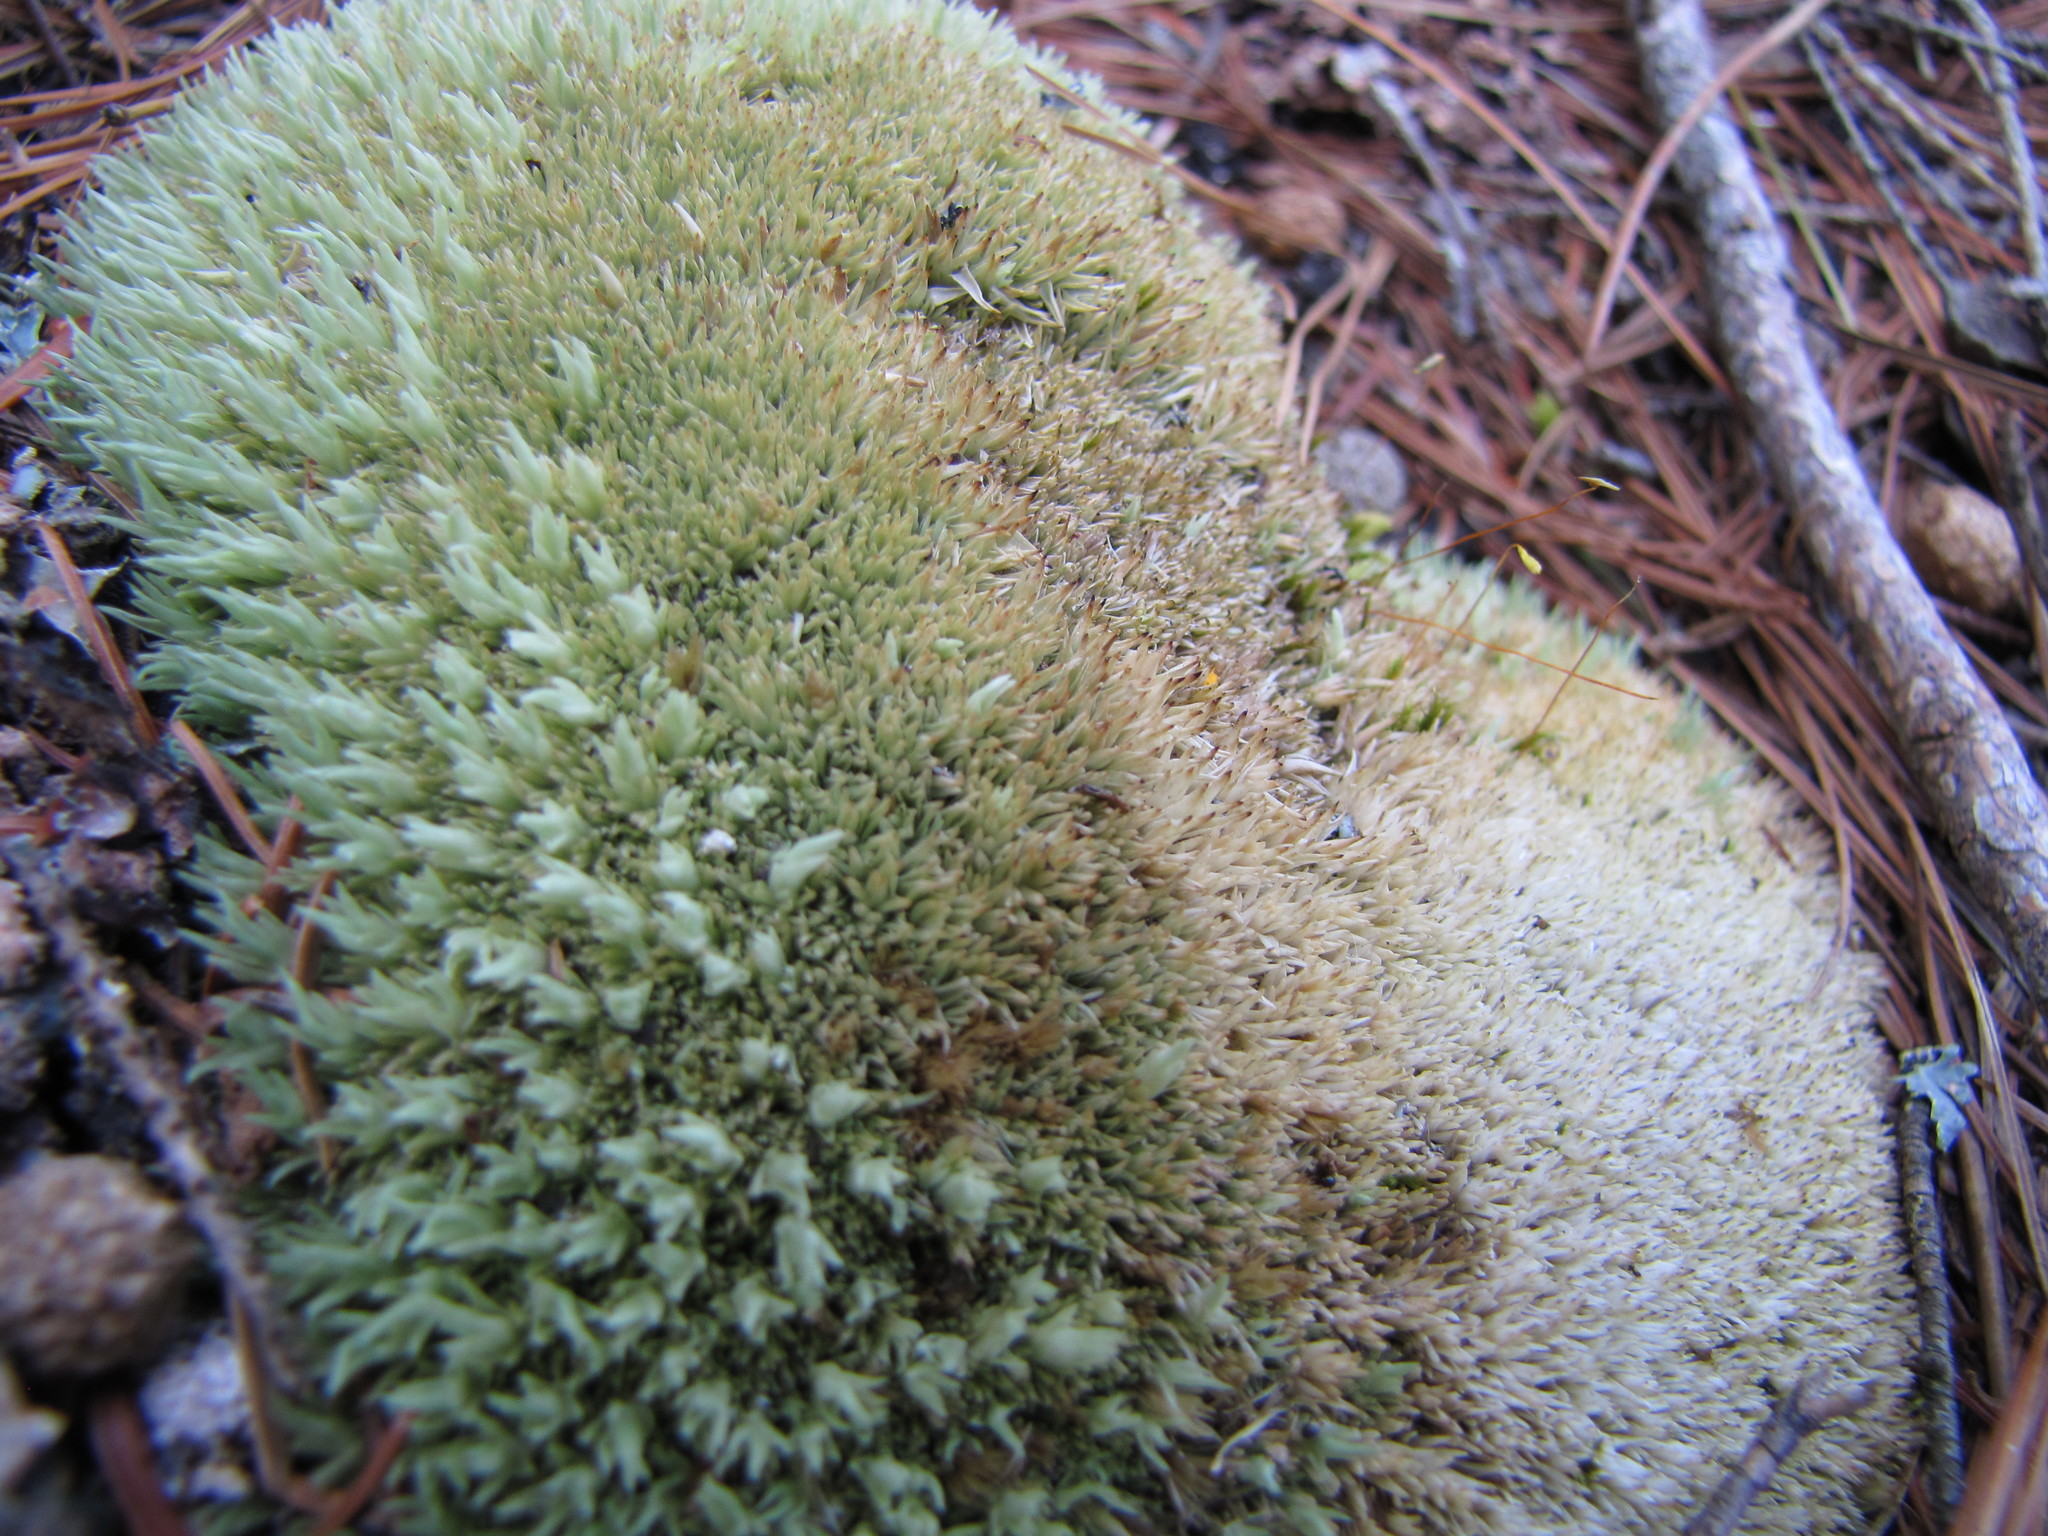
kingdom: Plantae
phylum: Bryophyta
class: Bryopsida
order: Dicranales
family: Leucobryaceae
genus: Leucobryum
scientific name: Leucobryum glaucum
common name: Large white-moss
